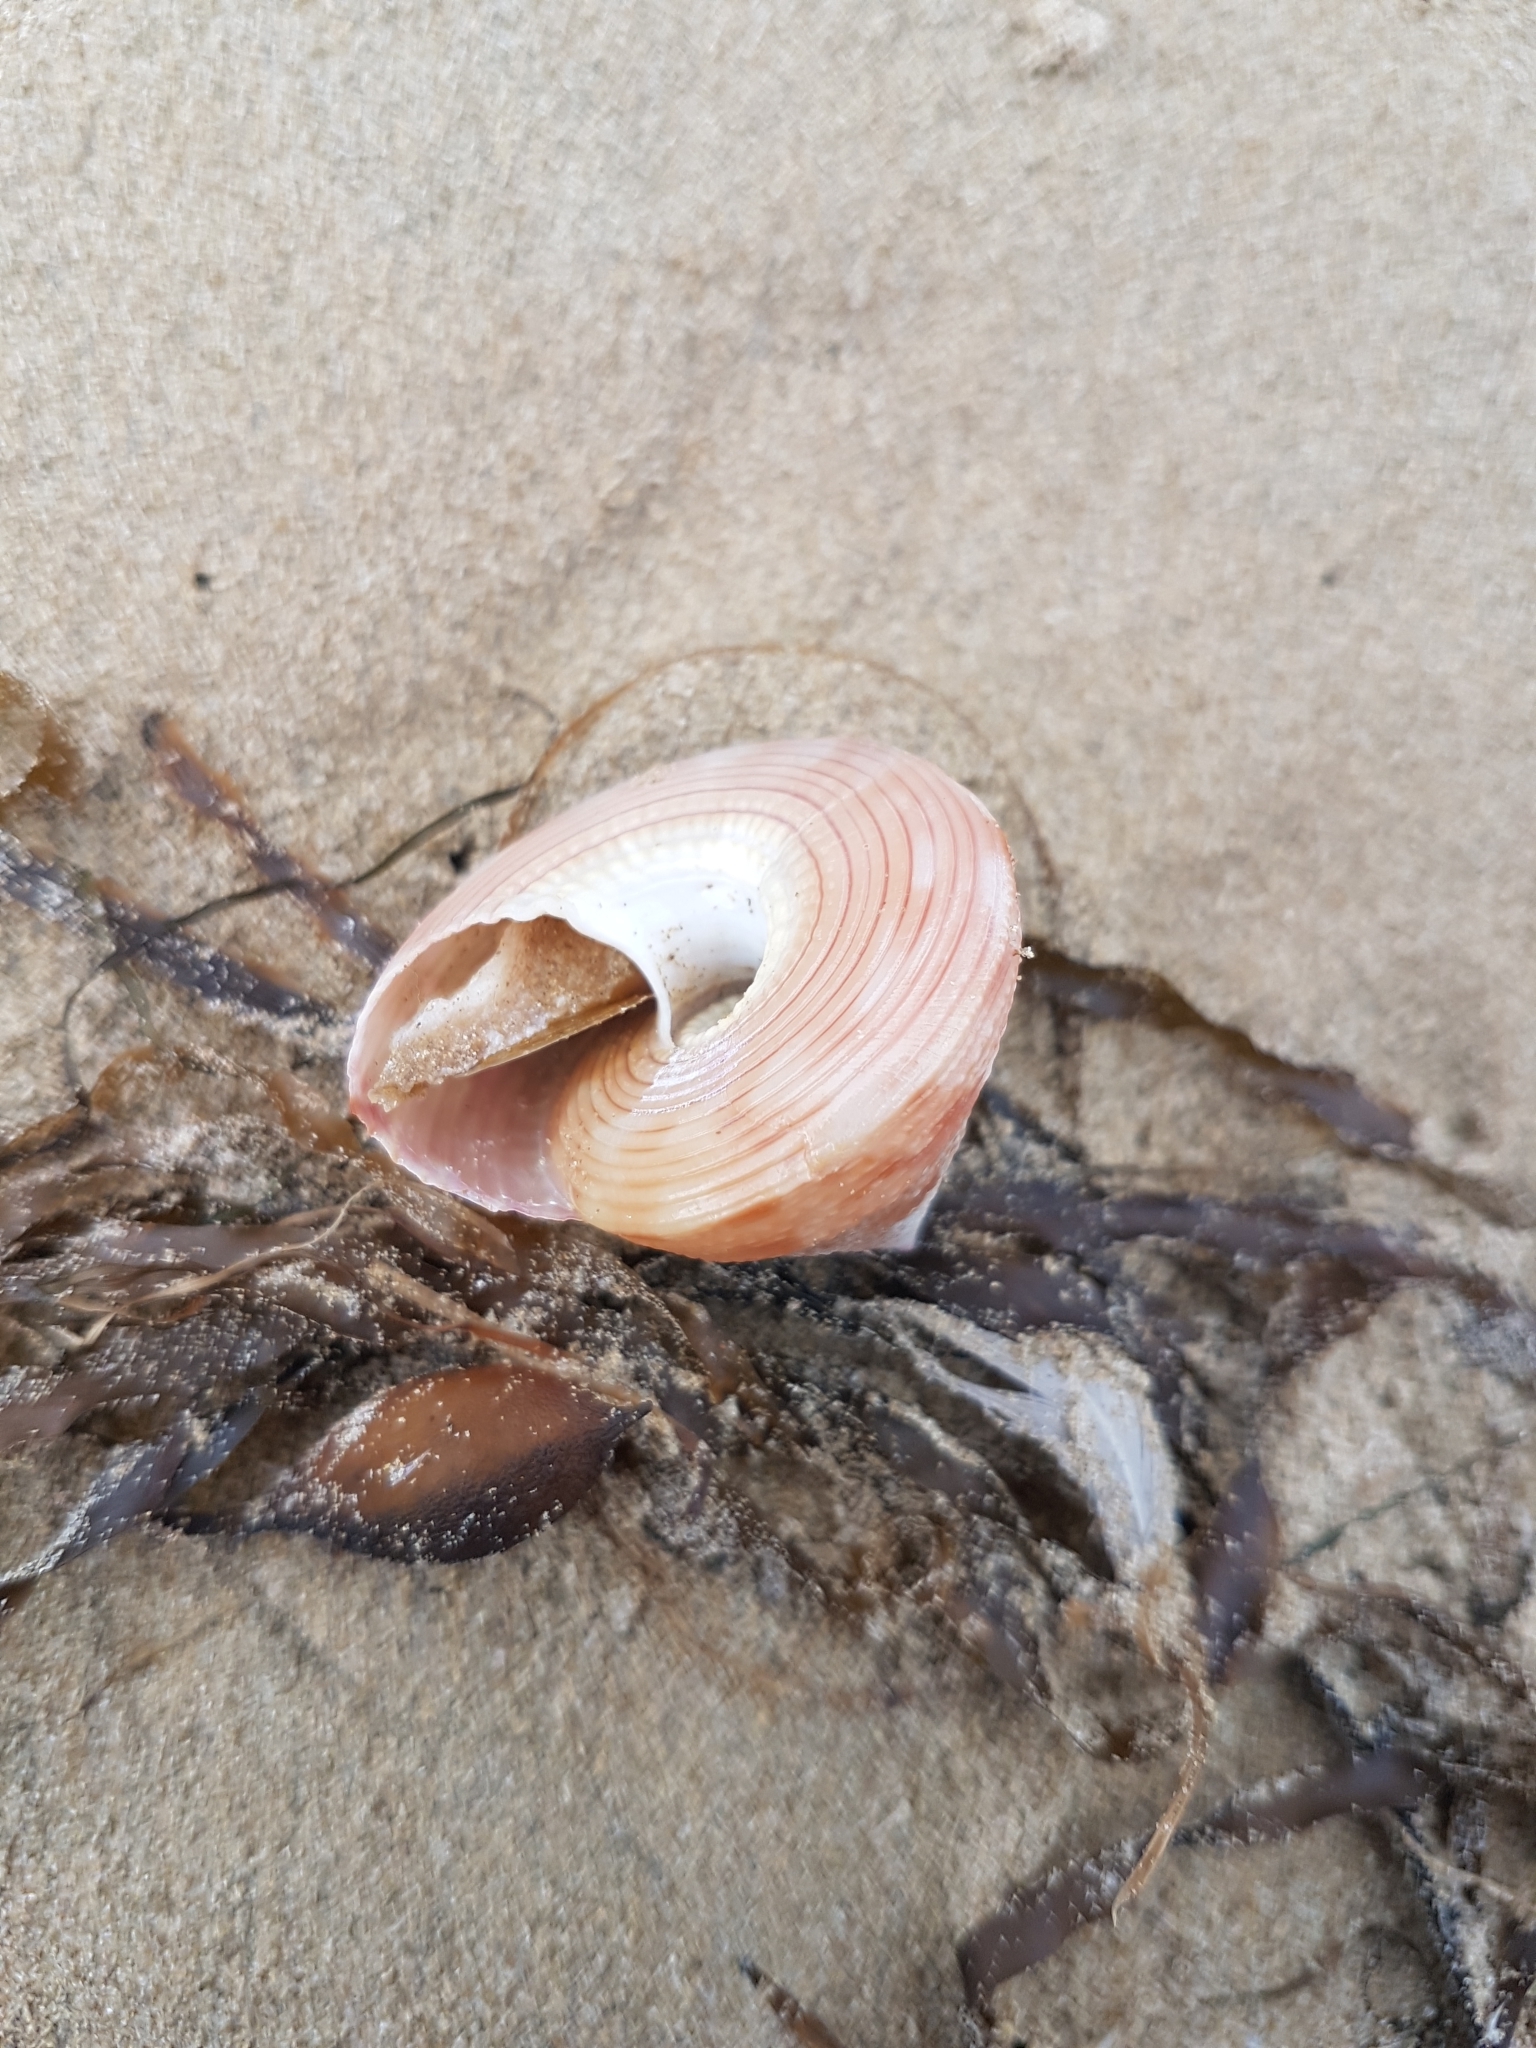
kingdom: Animalia
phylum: Mollusca
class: Gastropoda
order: Trochida
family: Calliostomatidae
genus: Astele
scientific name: Astele subcarinata
